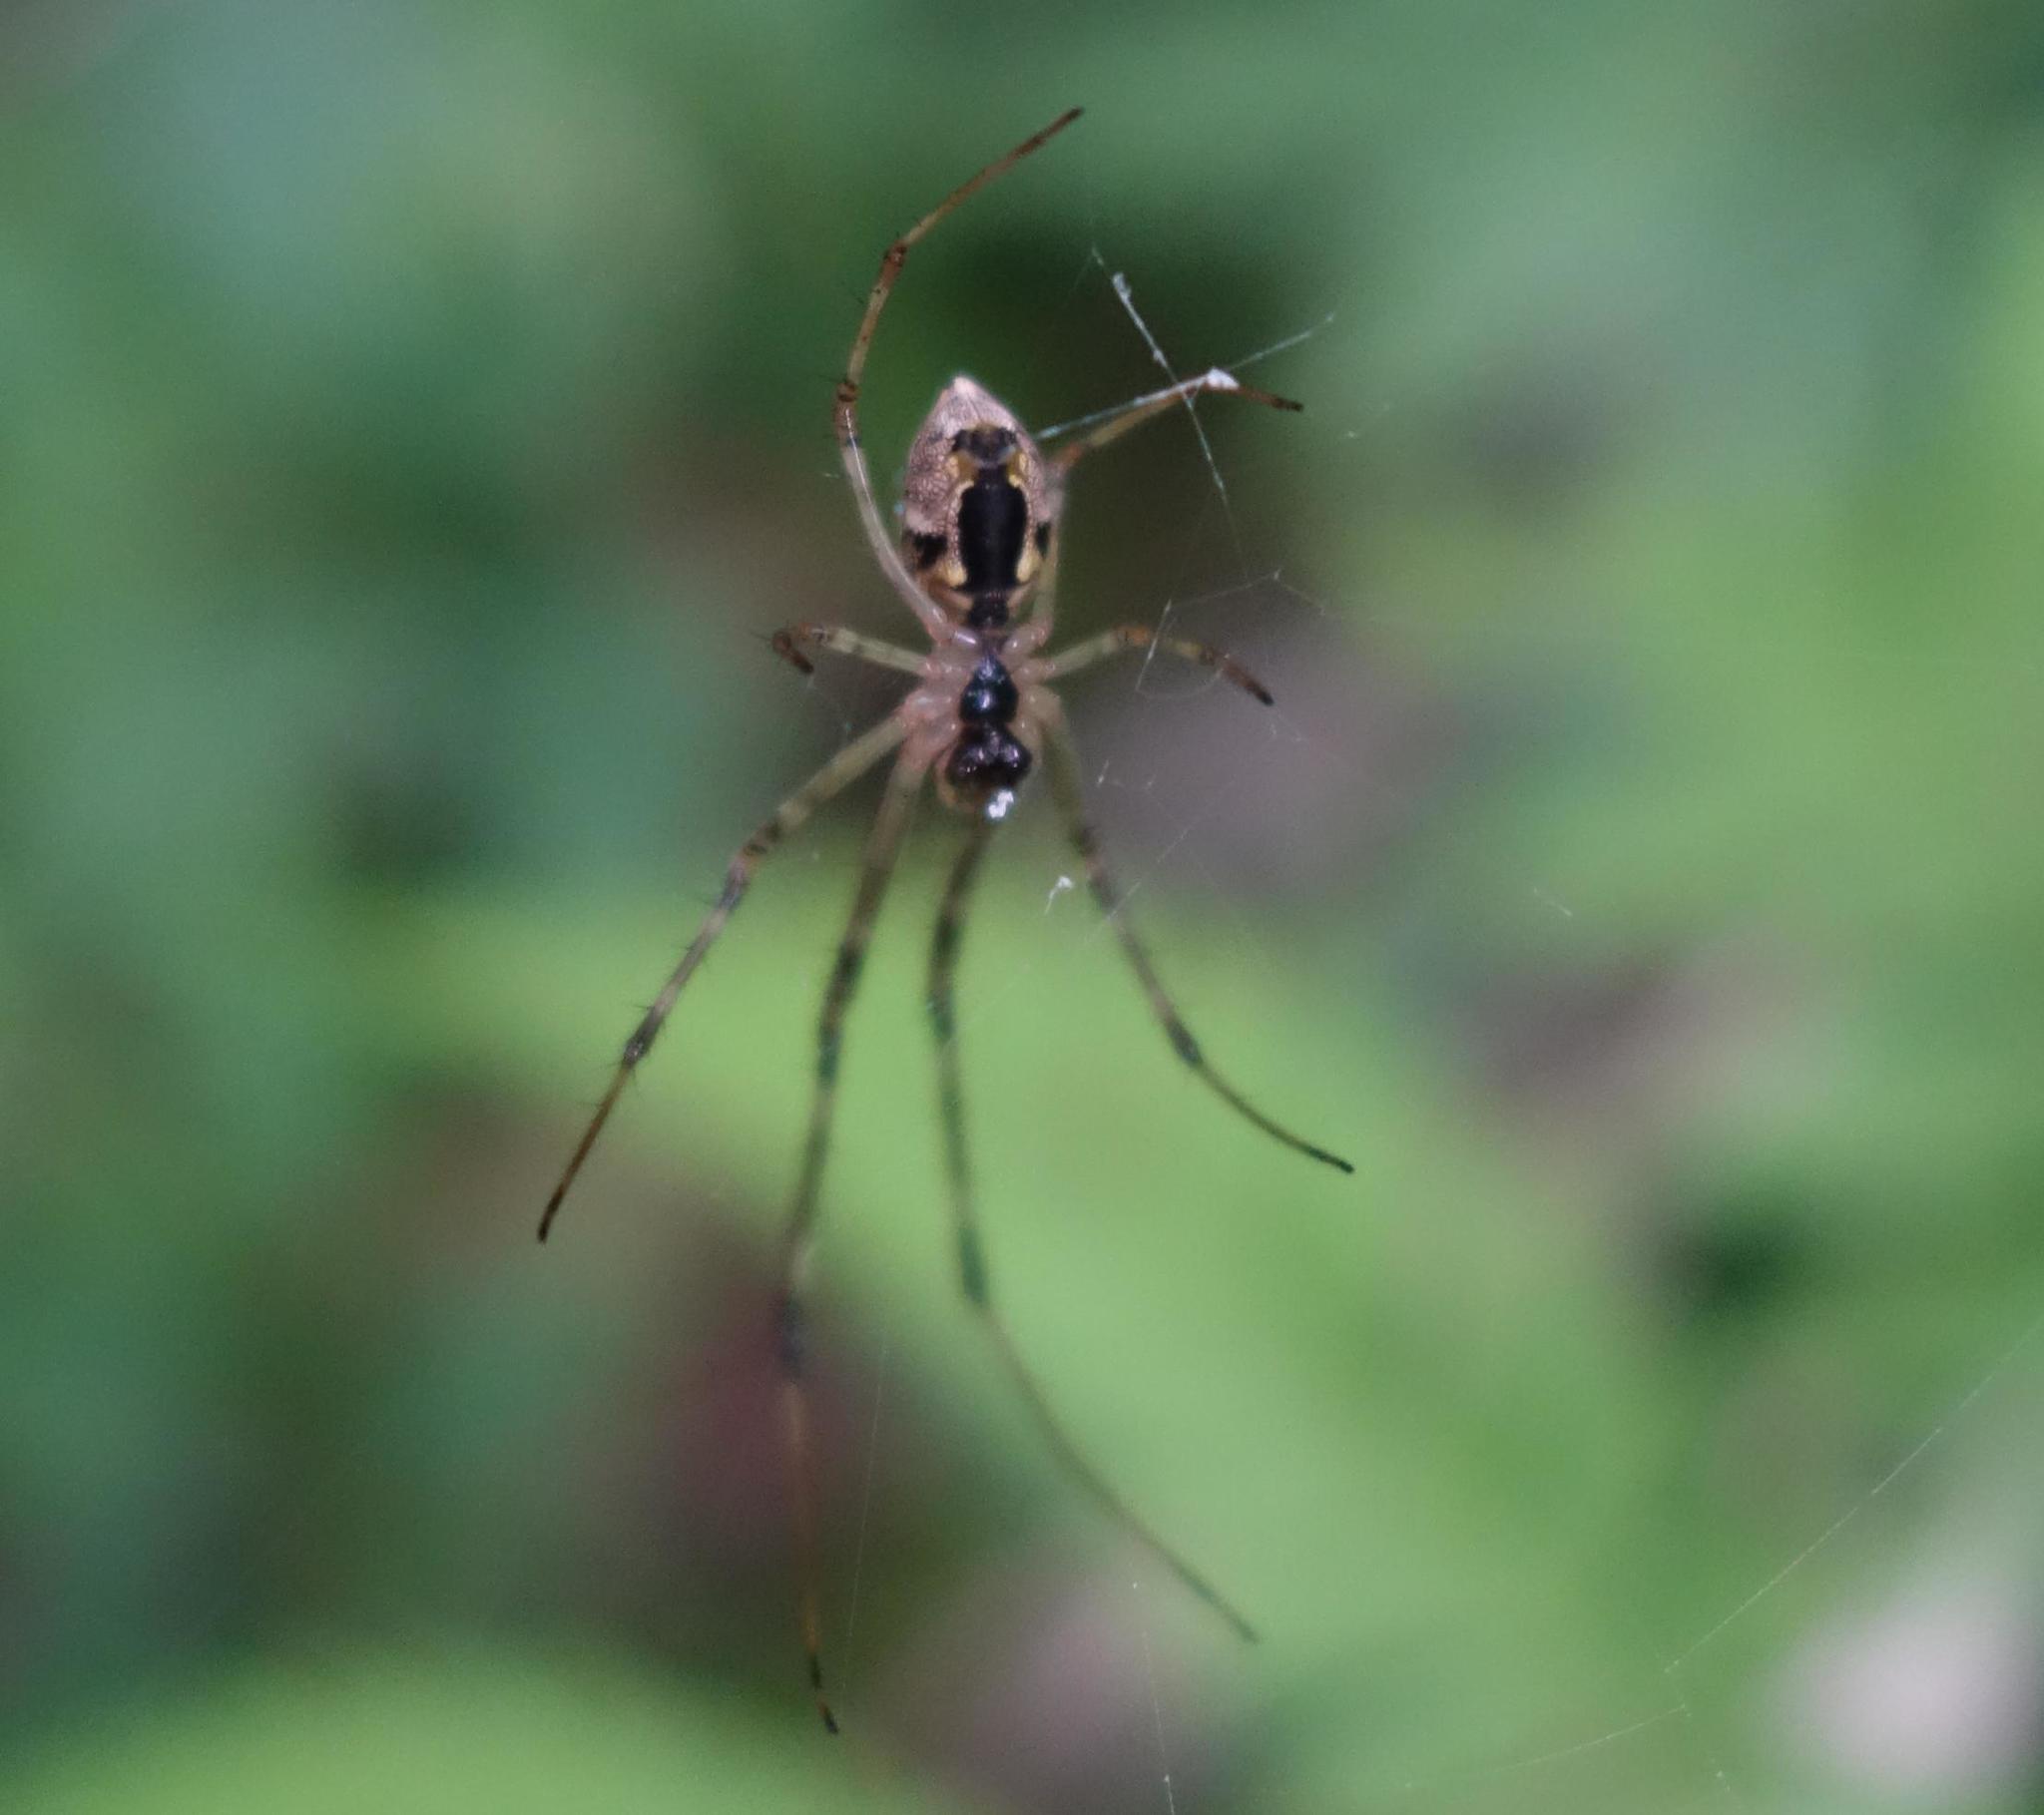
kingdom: Animalia
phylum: Arthropoda
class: Arachnida
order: Araneae
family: Tetragnathidae
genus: Tylorida
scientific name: Tylorida ventralis
